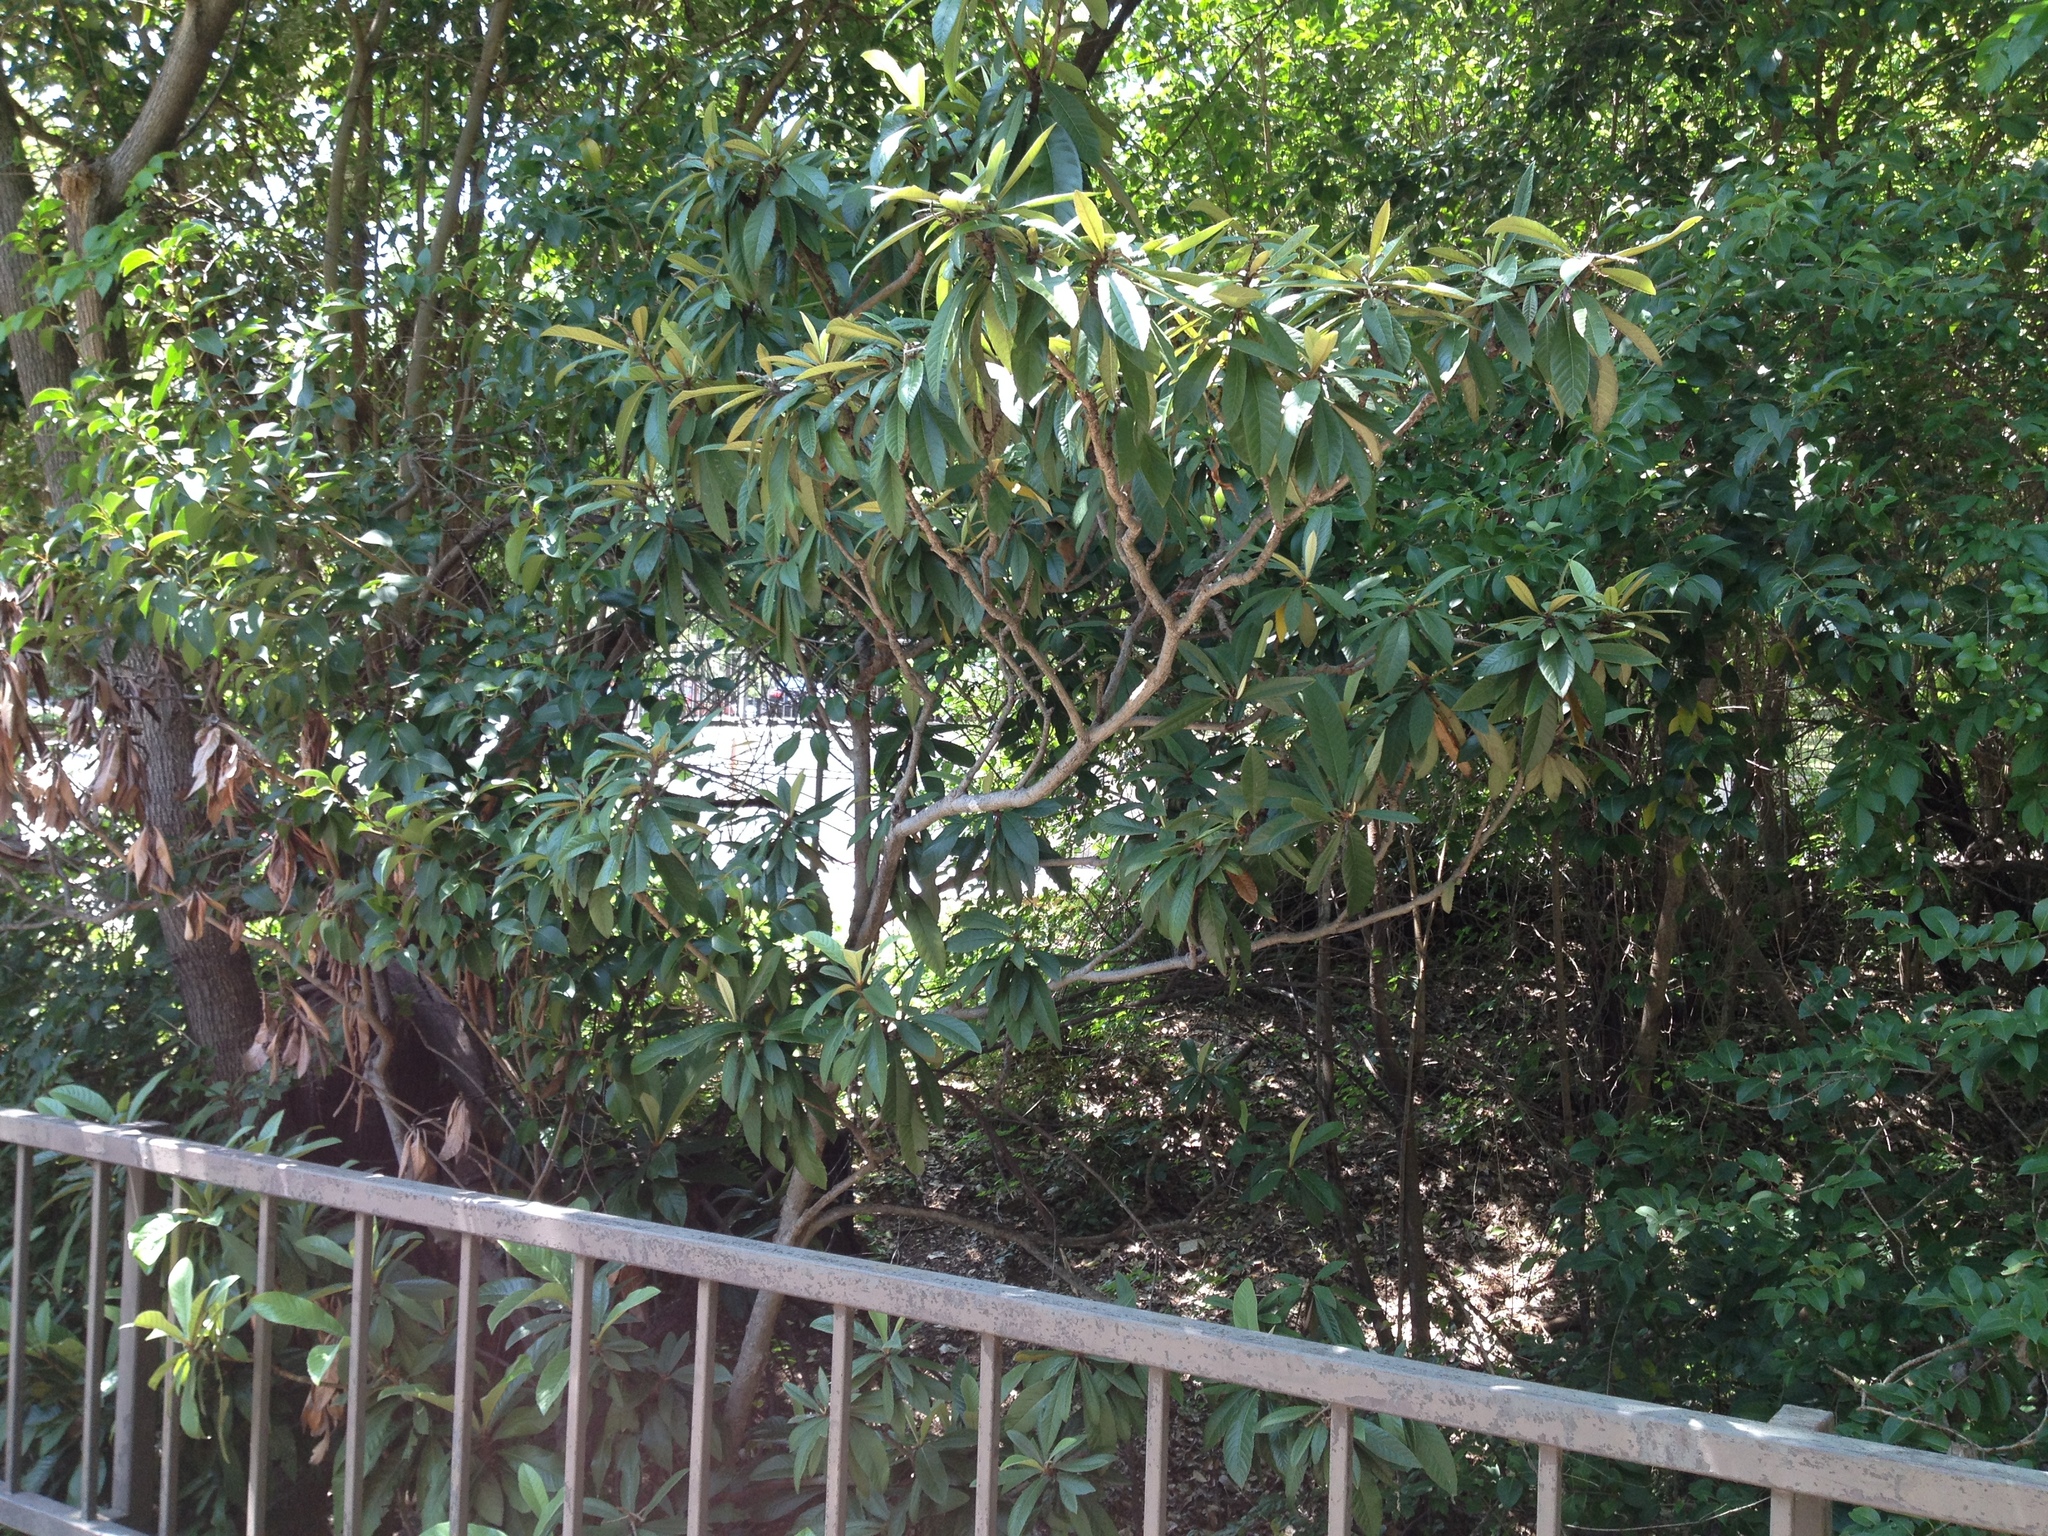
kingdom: Plantae
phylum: Tracheophyta
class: Magnoliopsida
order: Rosales
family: Rosaceae
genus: Rhaphiolepis
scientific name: Rhaphiolepis bibas
